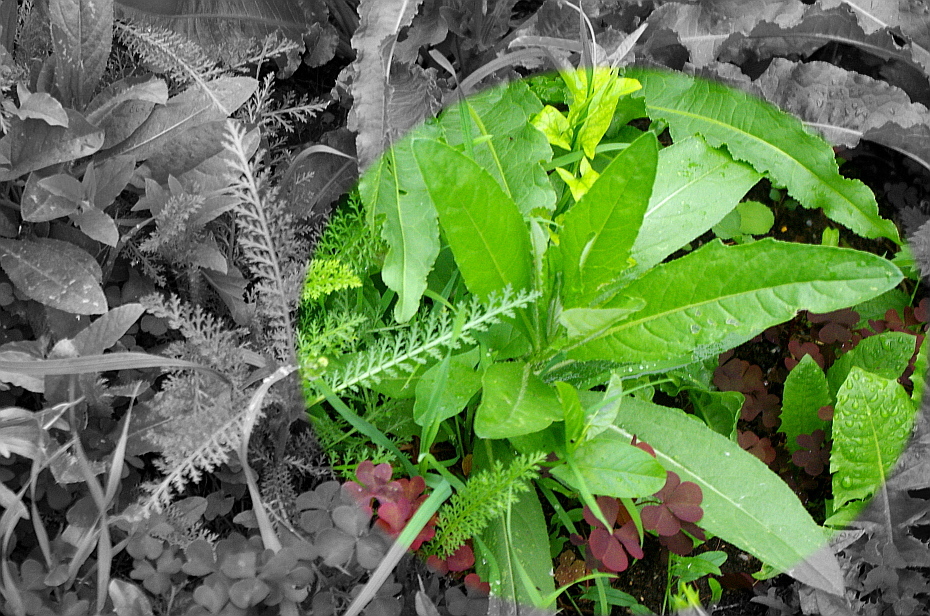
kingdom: Plantae
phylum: Tracheophyta
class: Magnoliopsida
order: Asterales
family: Asteraceae
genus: Cirsium
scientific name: Cirsium arvense
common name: Creeping thistle
